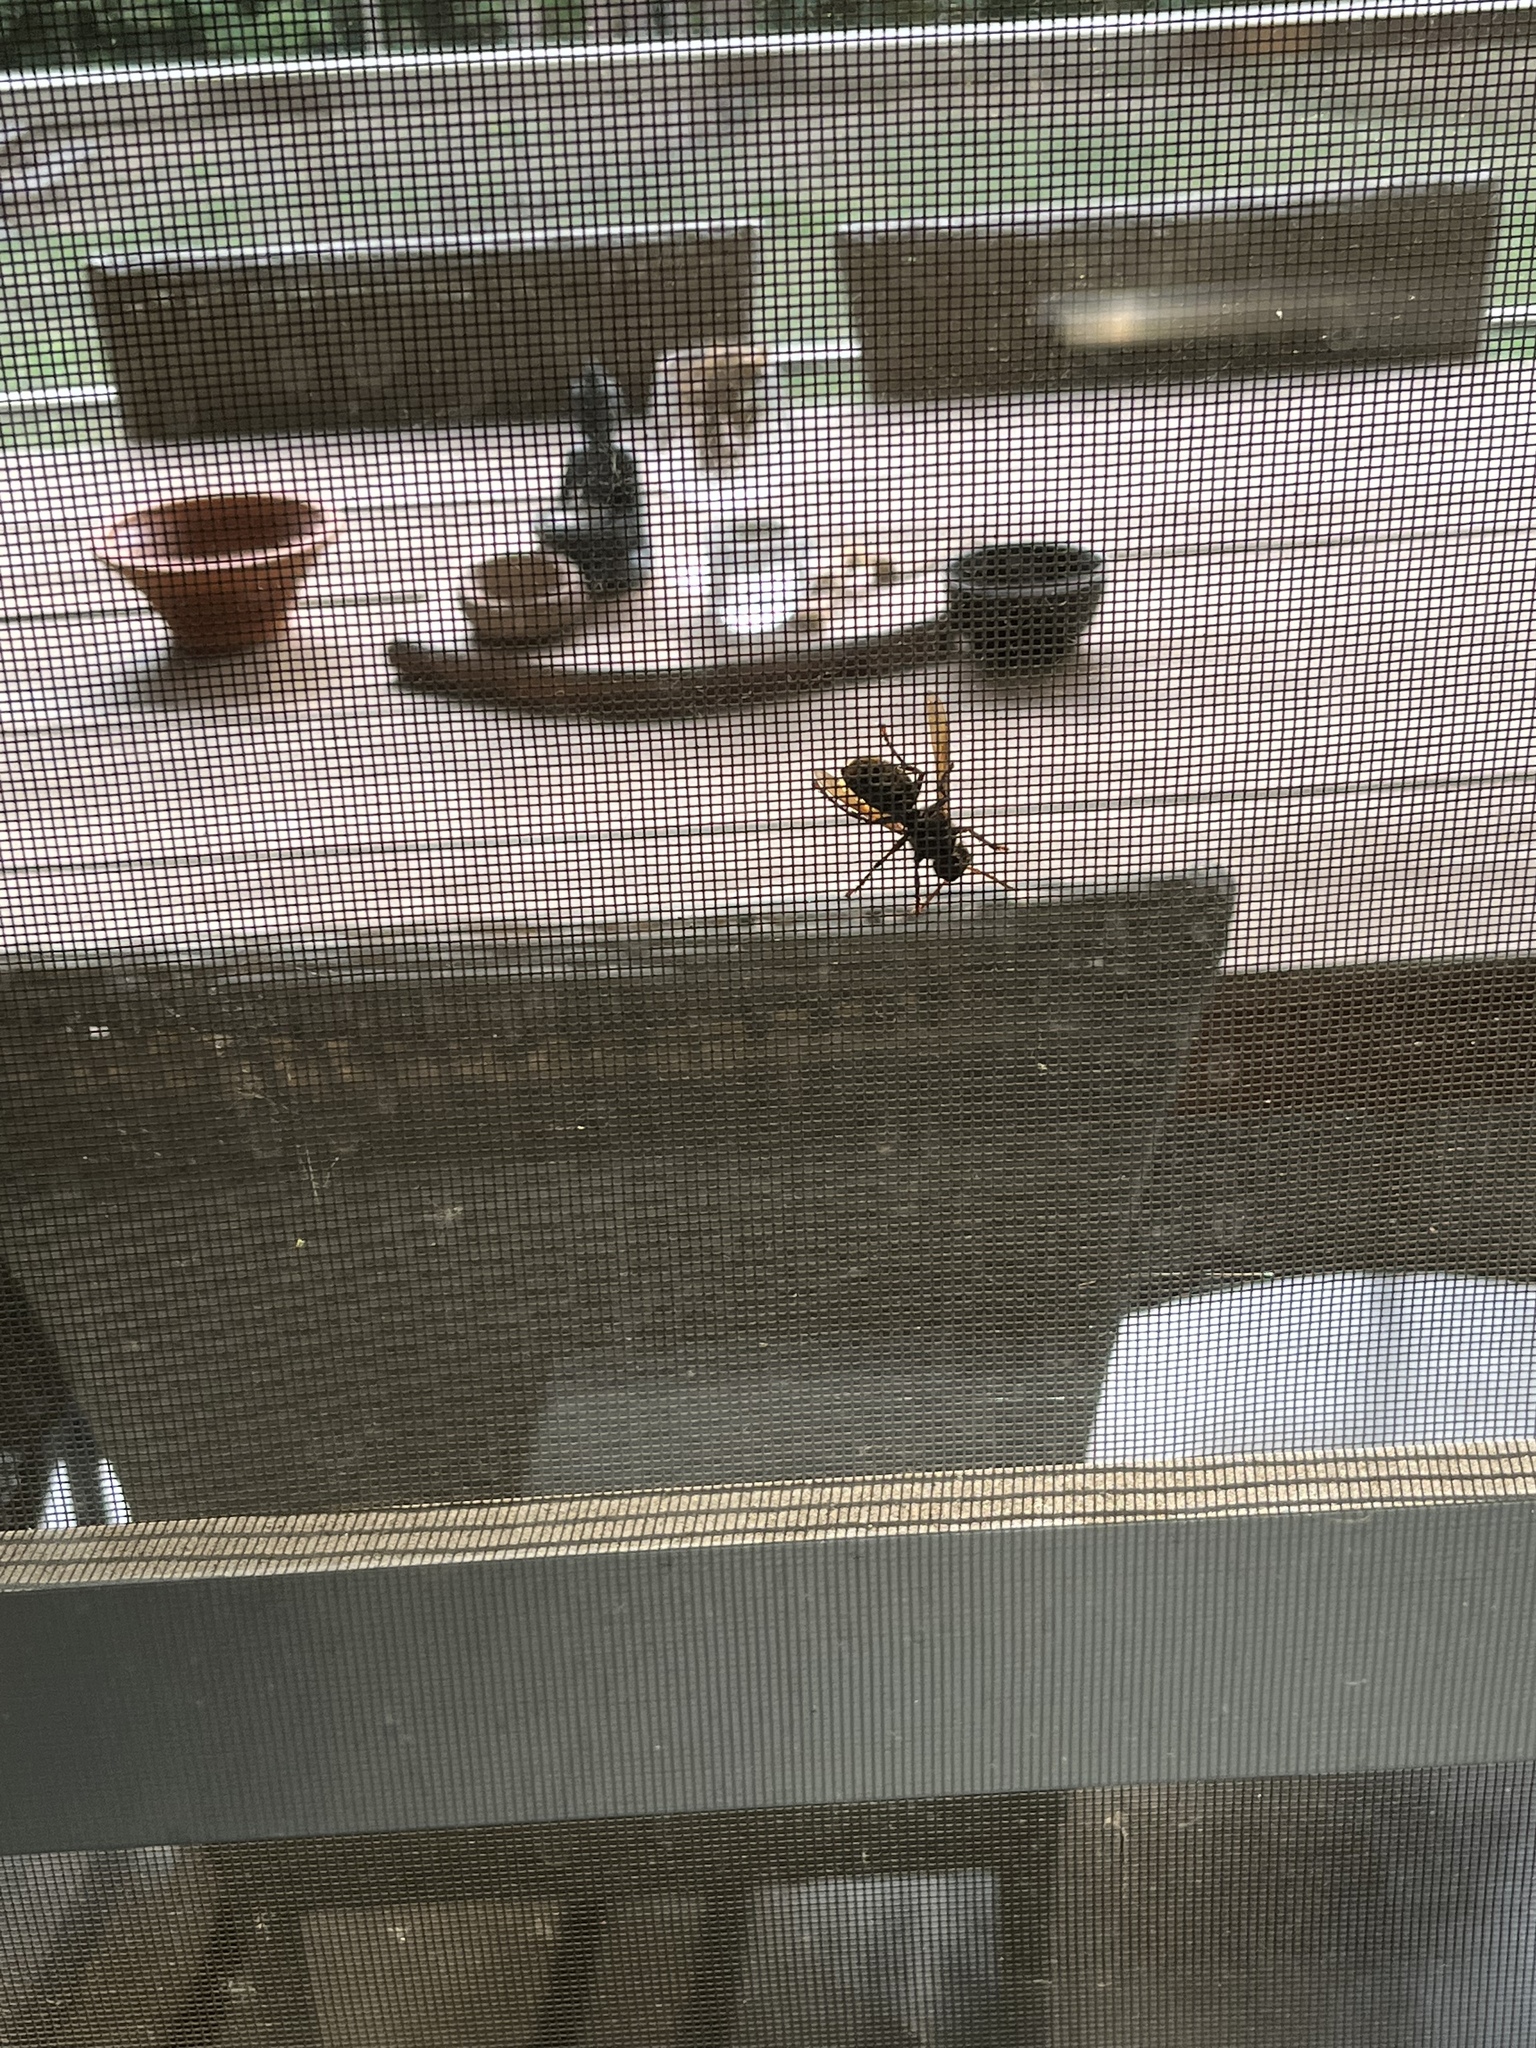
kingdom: Animalia
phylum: Arthropoda
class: Insecta
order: Hymenoptera
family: Vespidae
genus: Vespa
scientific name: Vespa crabro
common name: Hornet
